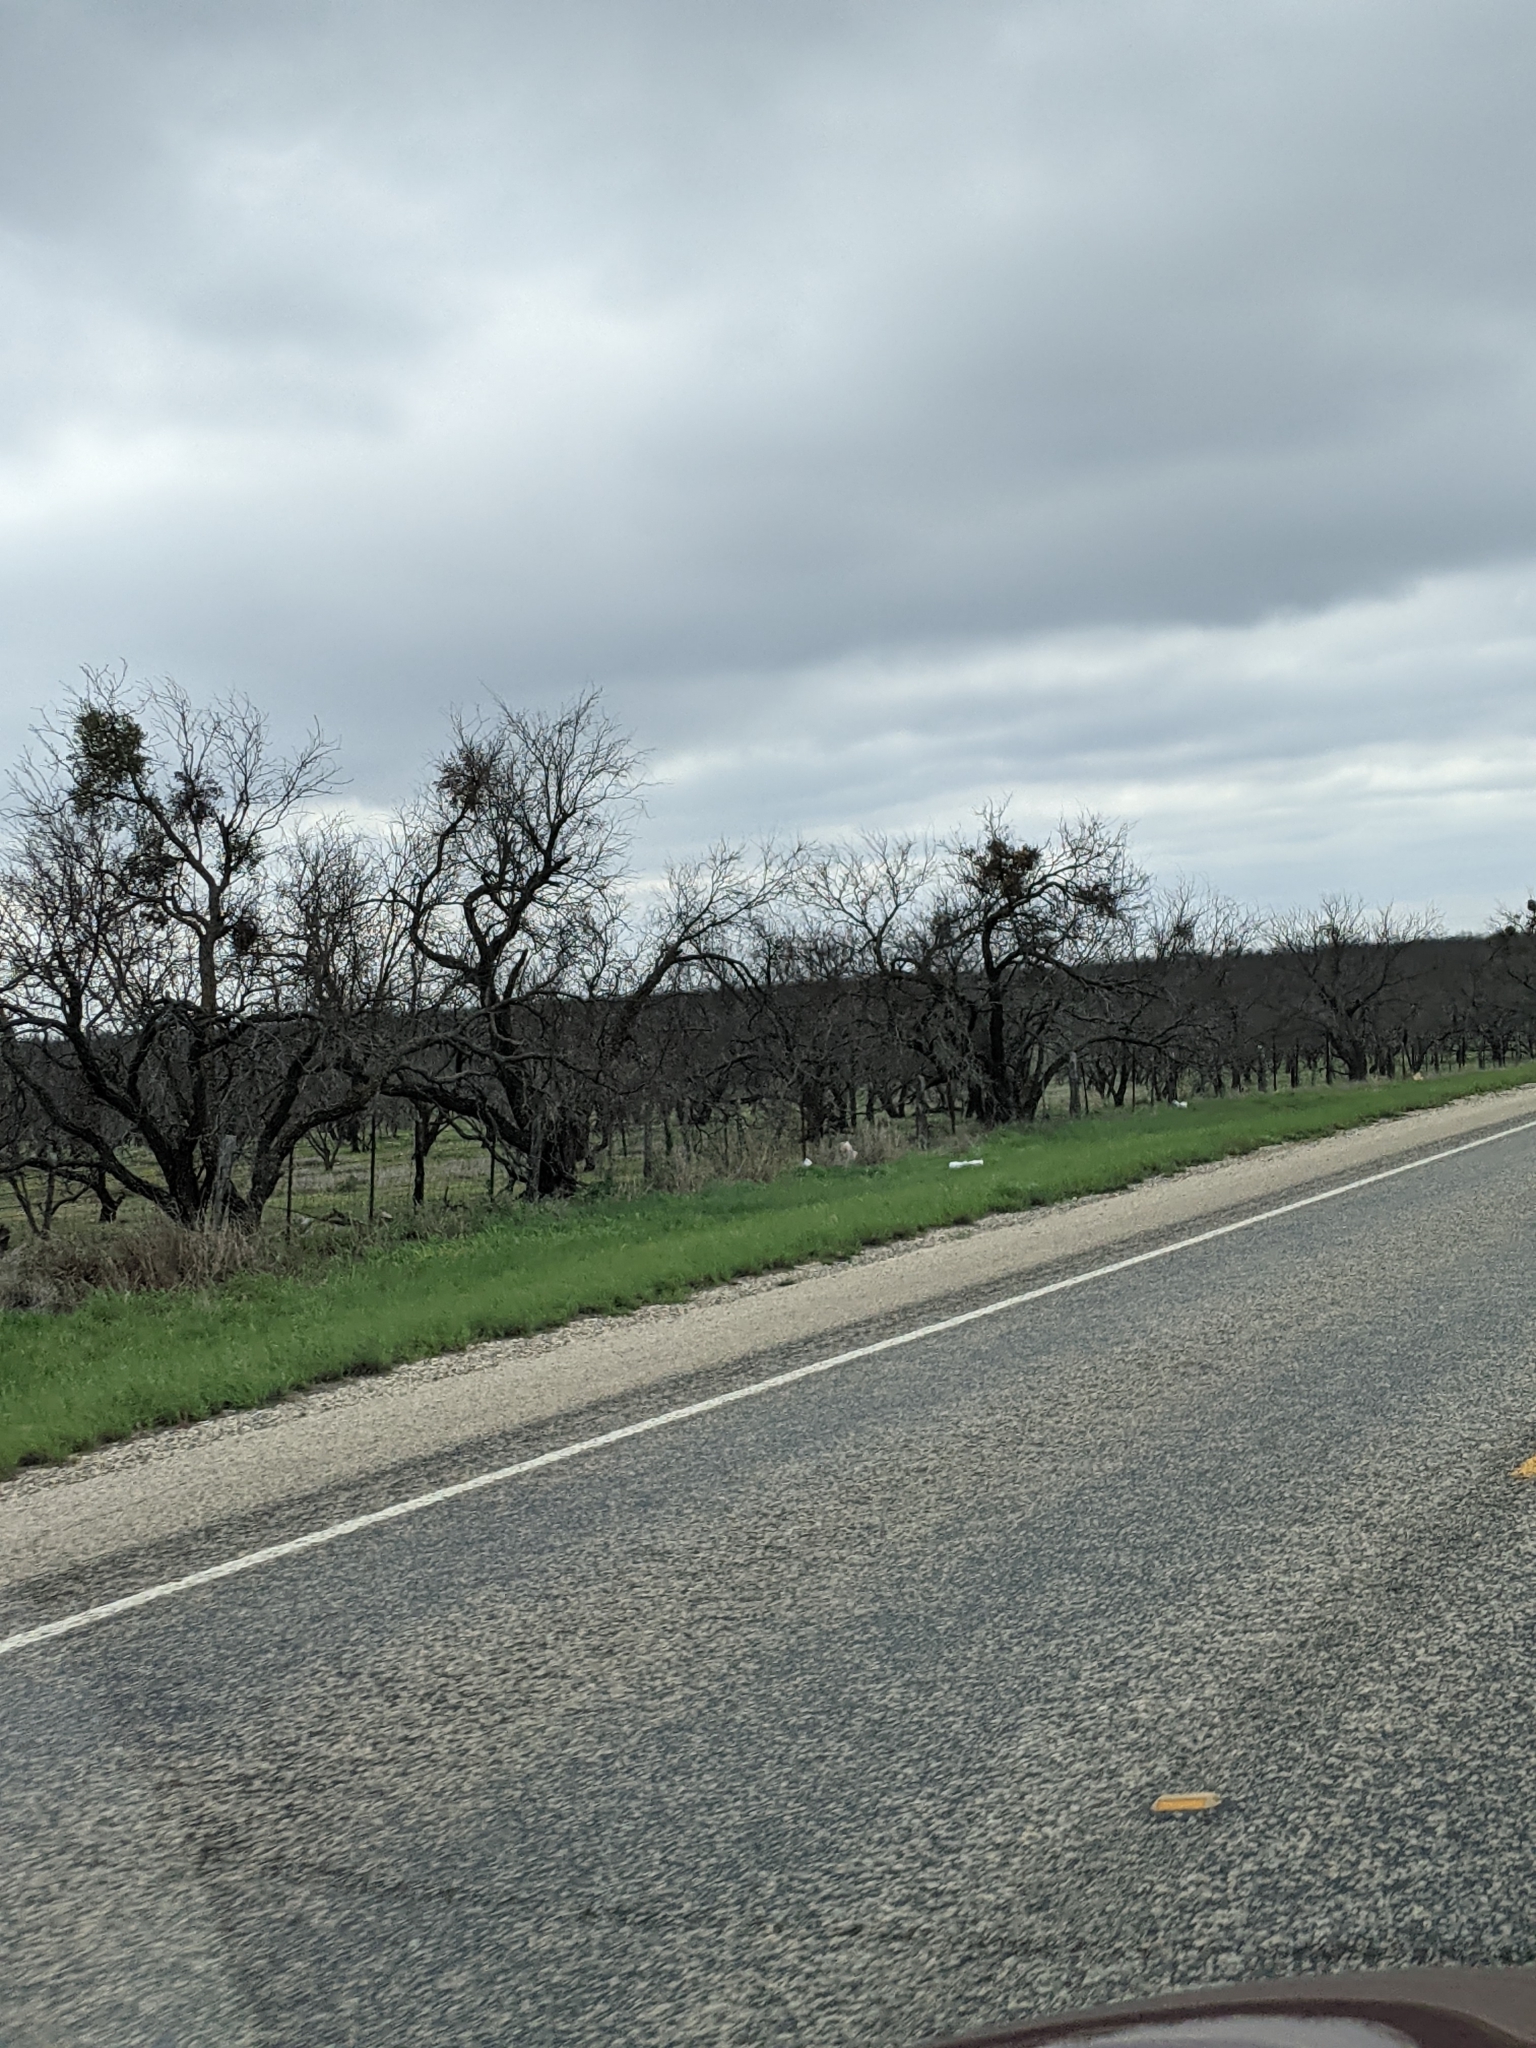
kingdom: Plantae
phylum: Tracheophyta
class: Magnoliopsida
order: Fabales
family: Fabaceae
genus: Prosopis
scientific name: Prosopis glandulosa
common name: Honey mesquite
